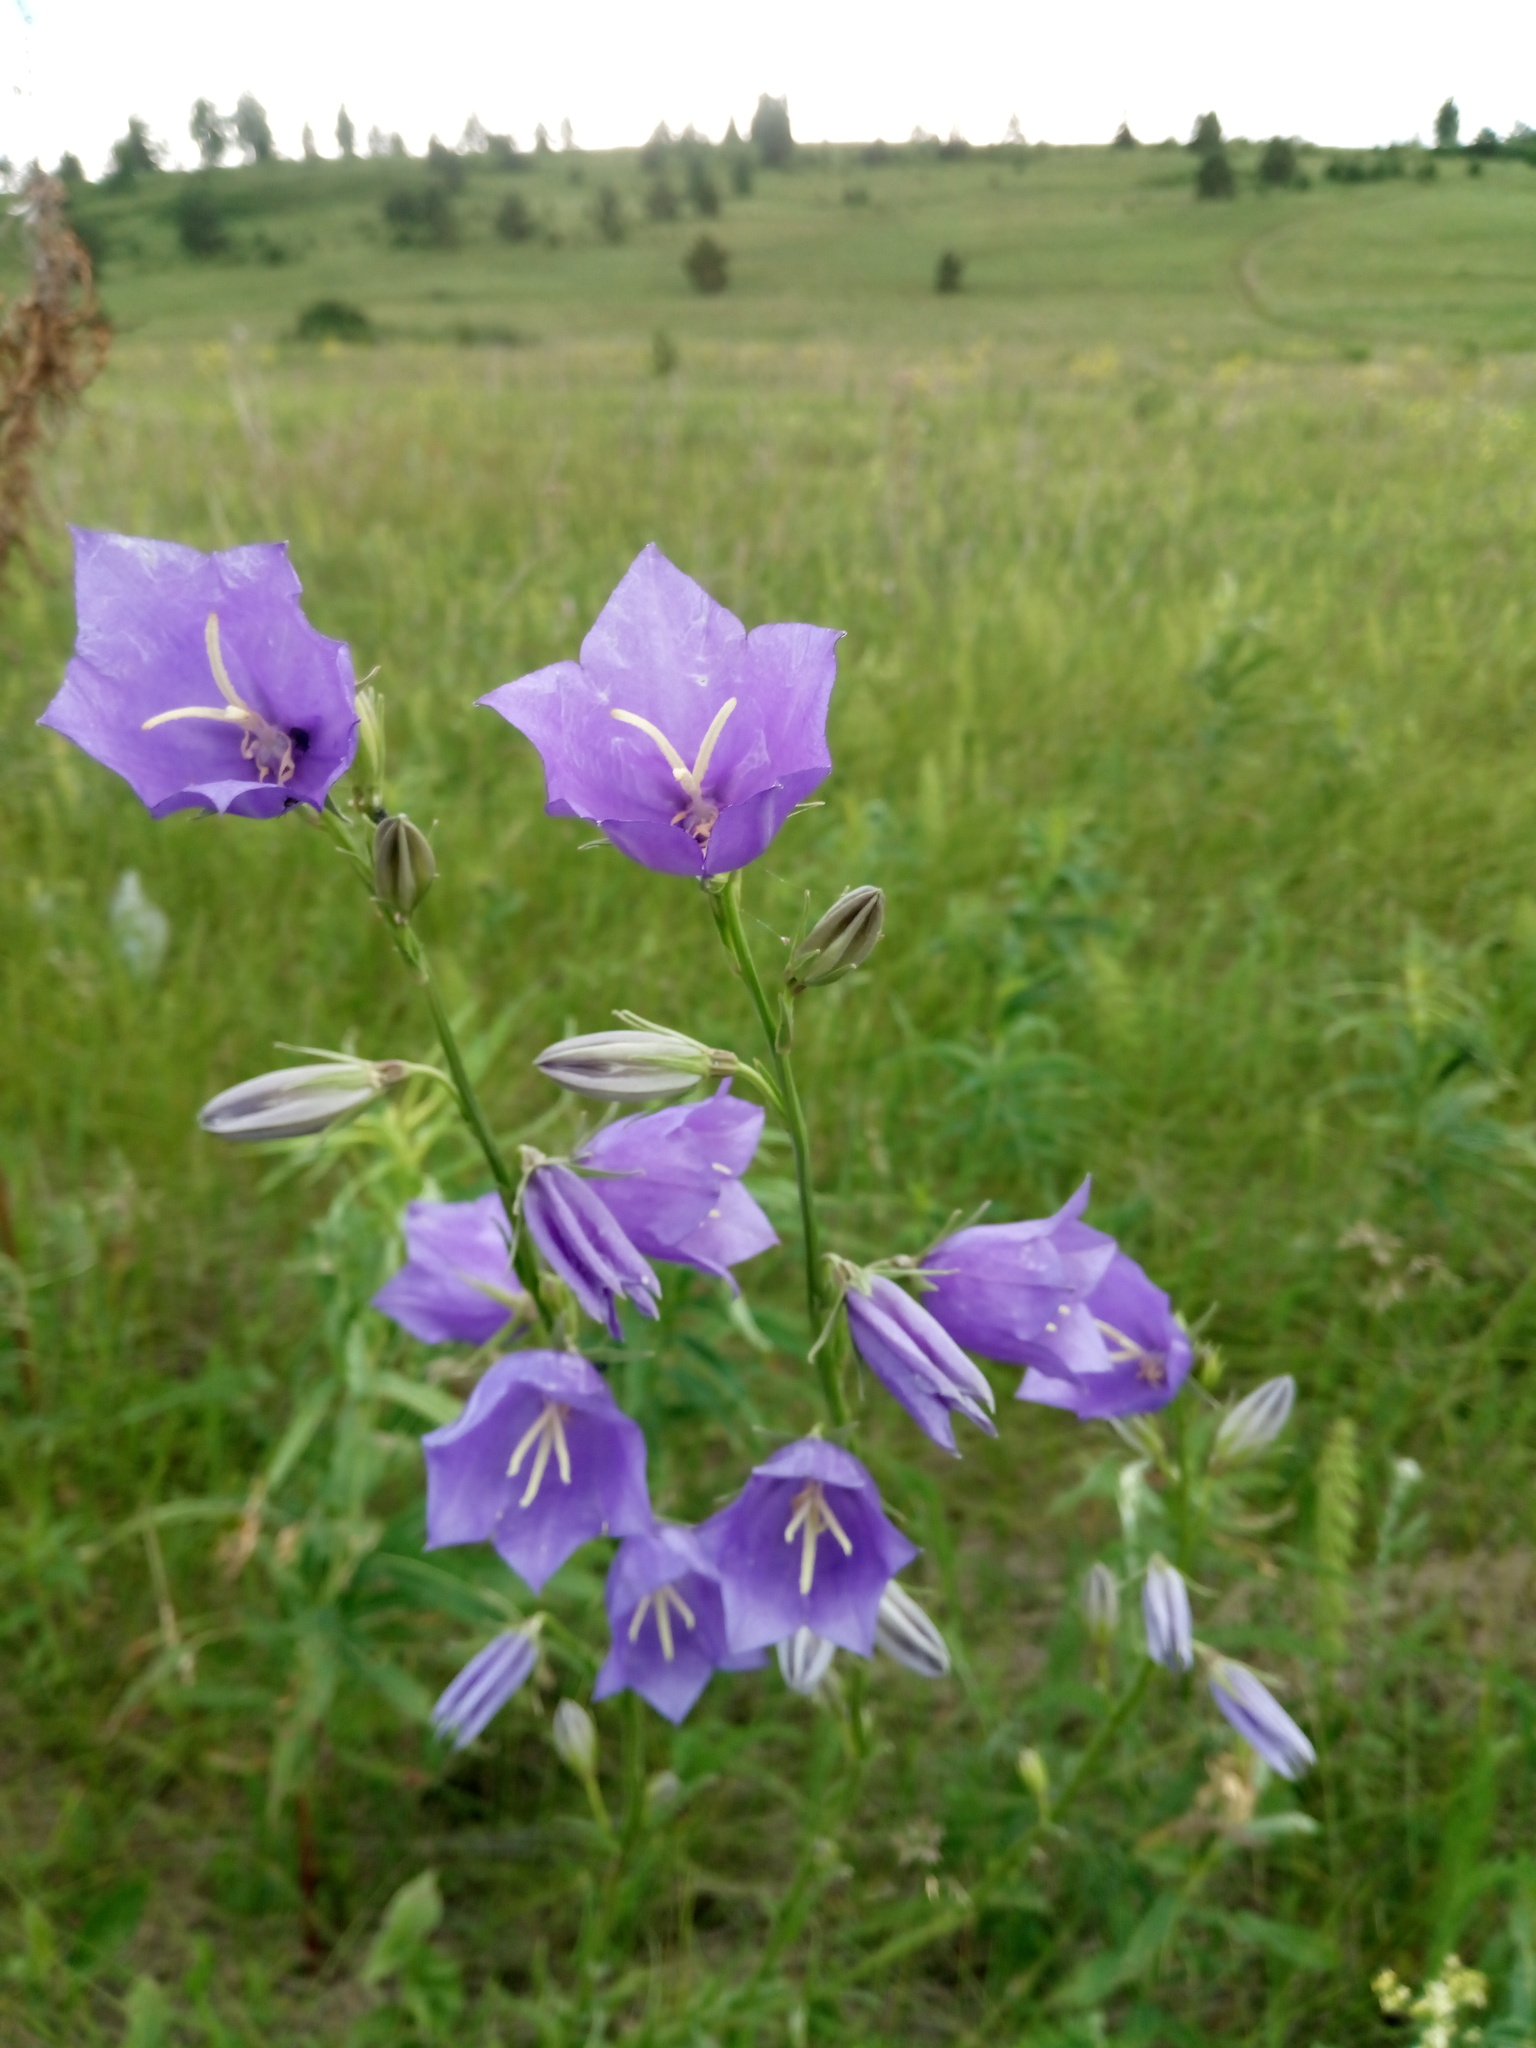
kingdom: Plantae
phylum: Tracheophyta
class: Magnoliopsida
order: Asterales
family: Campanulaceae
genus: Campanula
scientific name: Campanula persicifolia
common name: Peach-leaved bellflower
